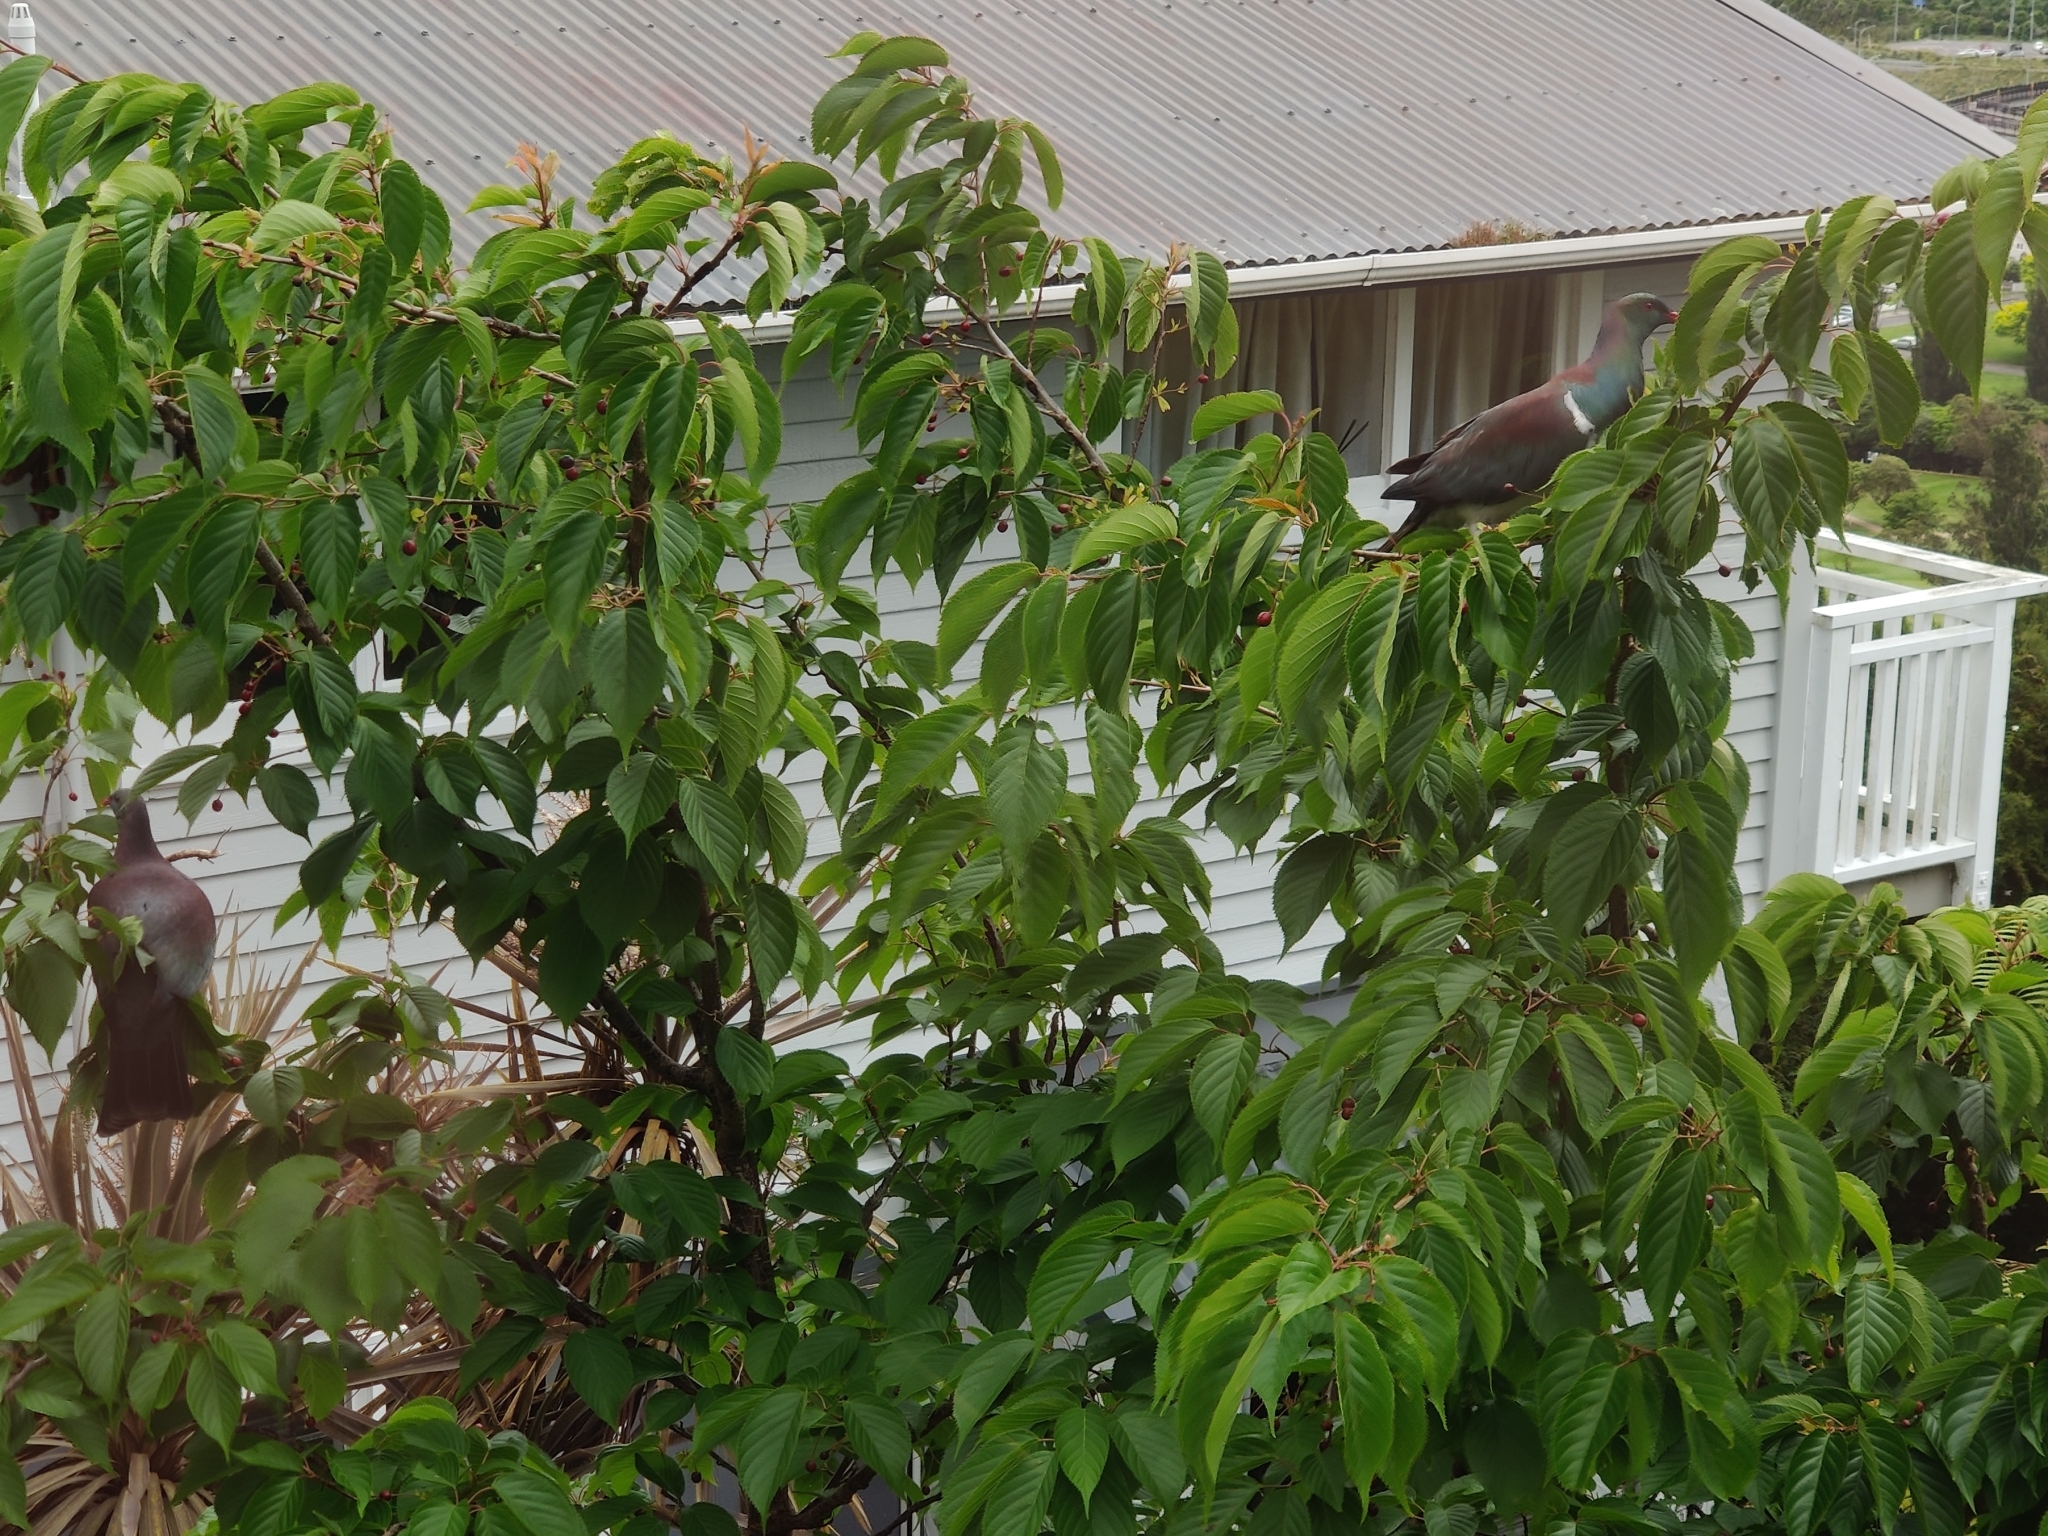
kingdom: Animalia
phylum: Chordata
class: Aves
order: Columbiformes
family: Columbidae
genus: Hemiphaga
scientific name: Hemiphaga novaeseelandiae
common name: New zealand pigeon
